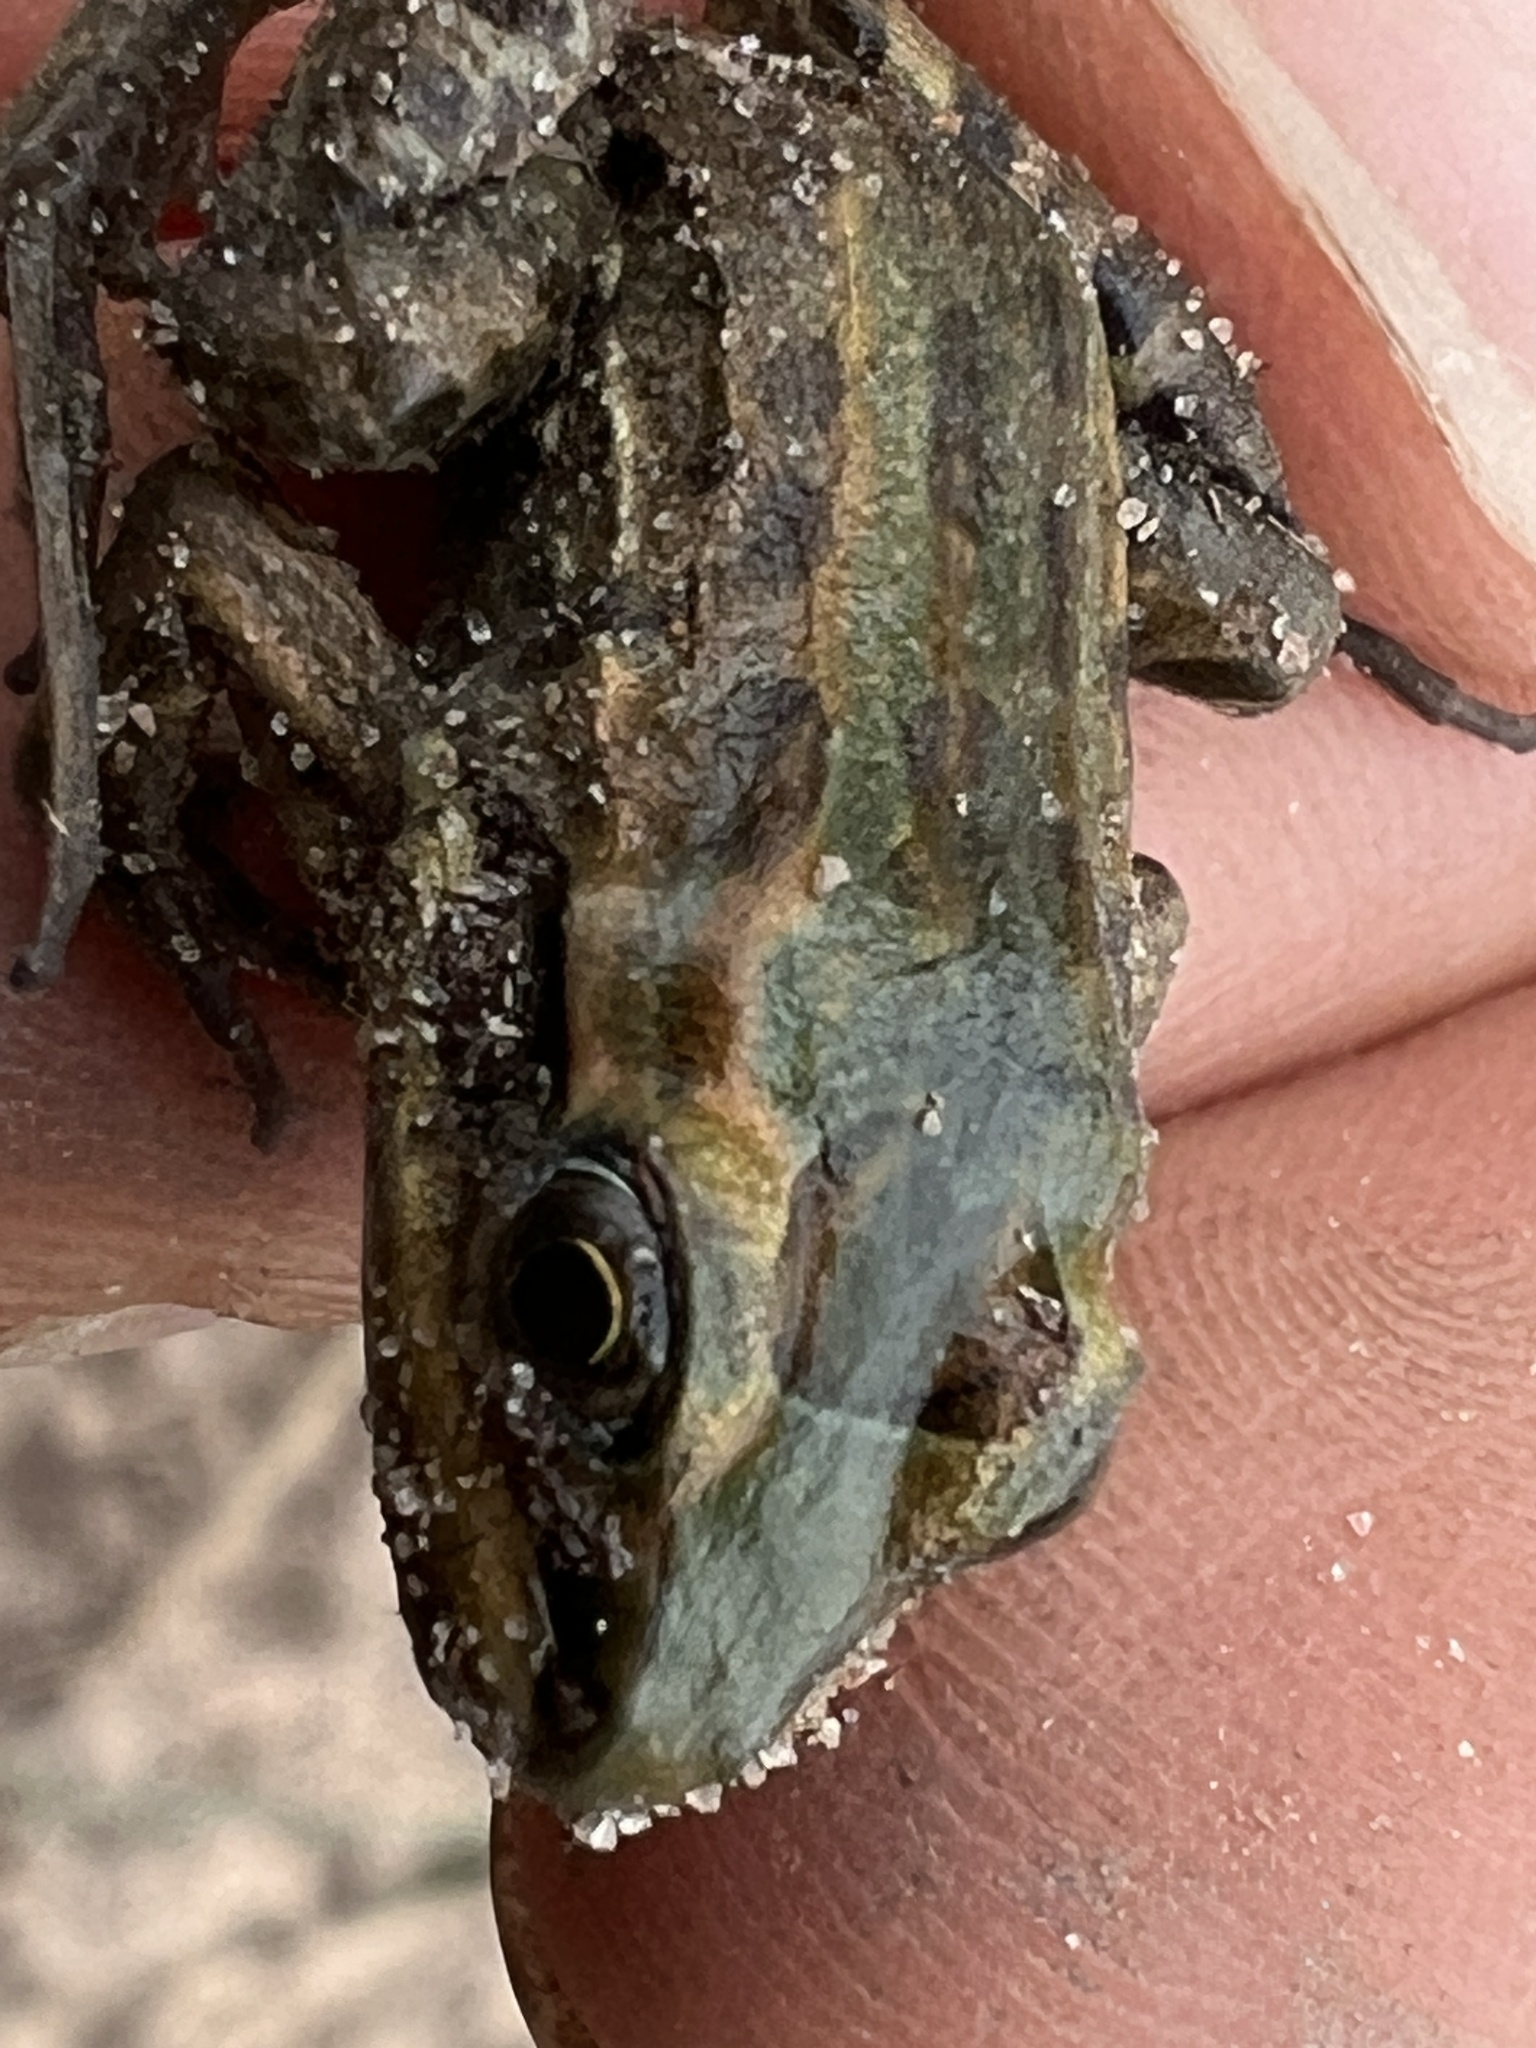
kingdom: Animalia
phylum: Chordata
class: Amphibia
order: Anura
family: Leptodactylidae
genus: Leptodactylus
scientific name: Leptodactylus latrans
